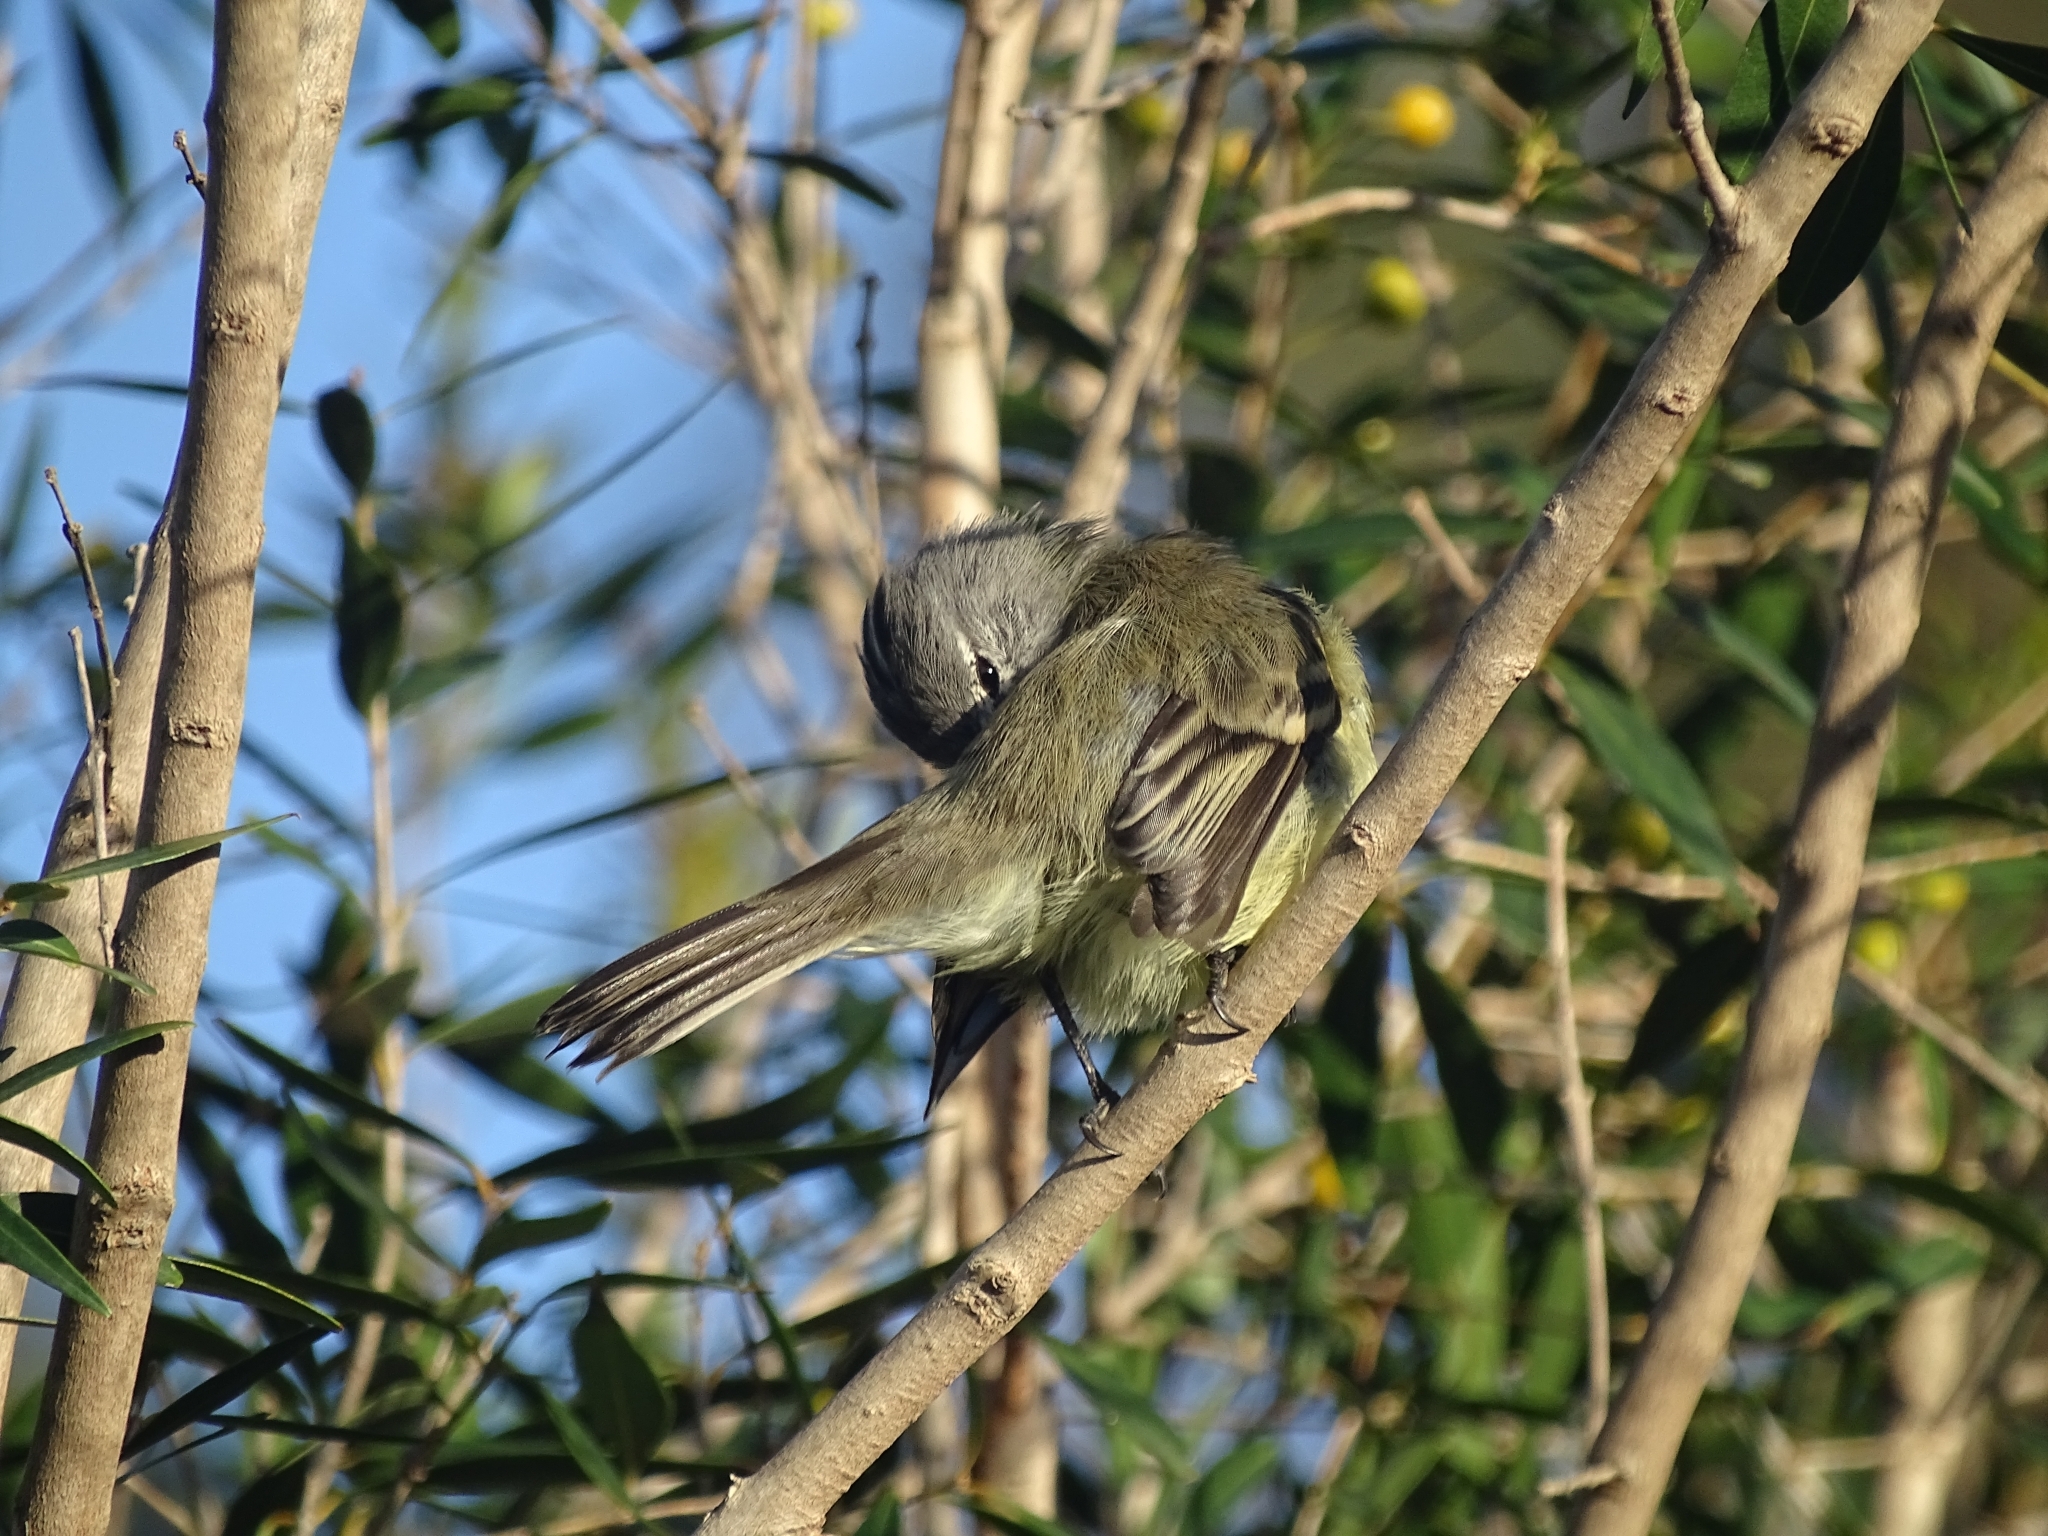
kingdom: Animalia
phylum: Chordata
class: Aves
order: Passeriformes
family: Tyrannidae
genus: Serpophaga
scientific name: Serpophaga subcristata
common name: White-crested tyrannulet
